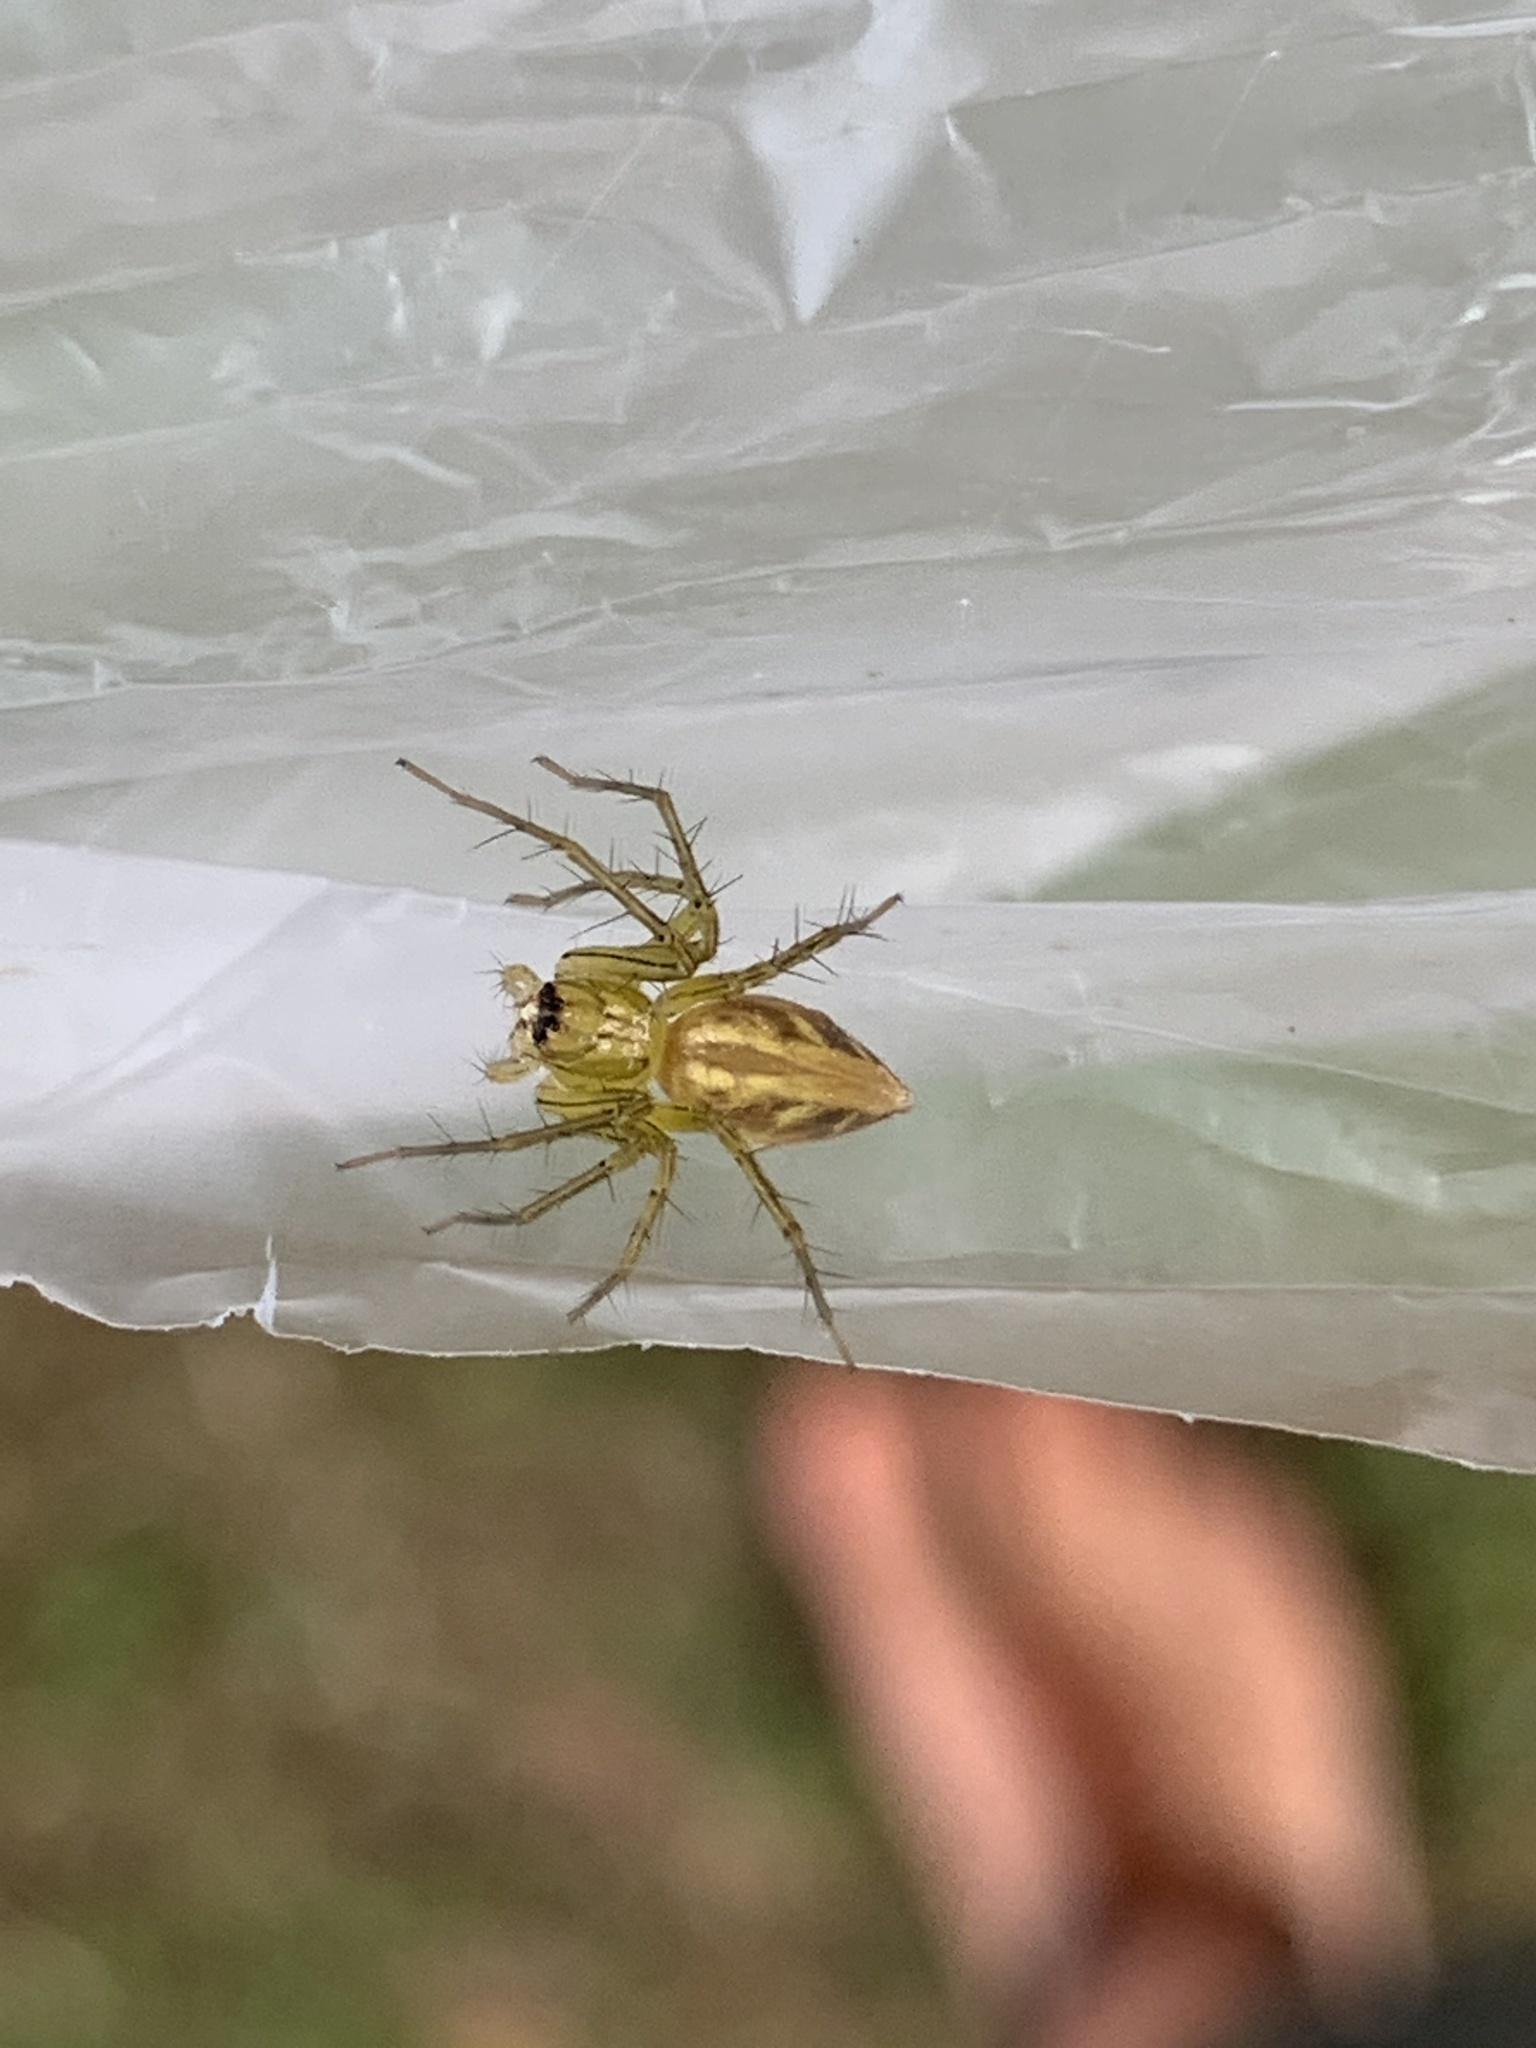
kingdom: Animalia
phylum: Arthropoda
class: Arachnida
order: Araneae
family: Oxyopidae
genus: Oxyopes
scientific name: Oxyopes salticus
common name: Lynx spiders
